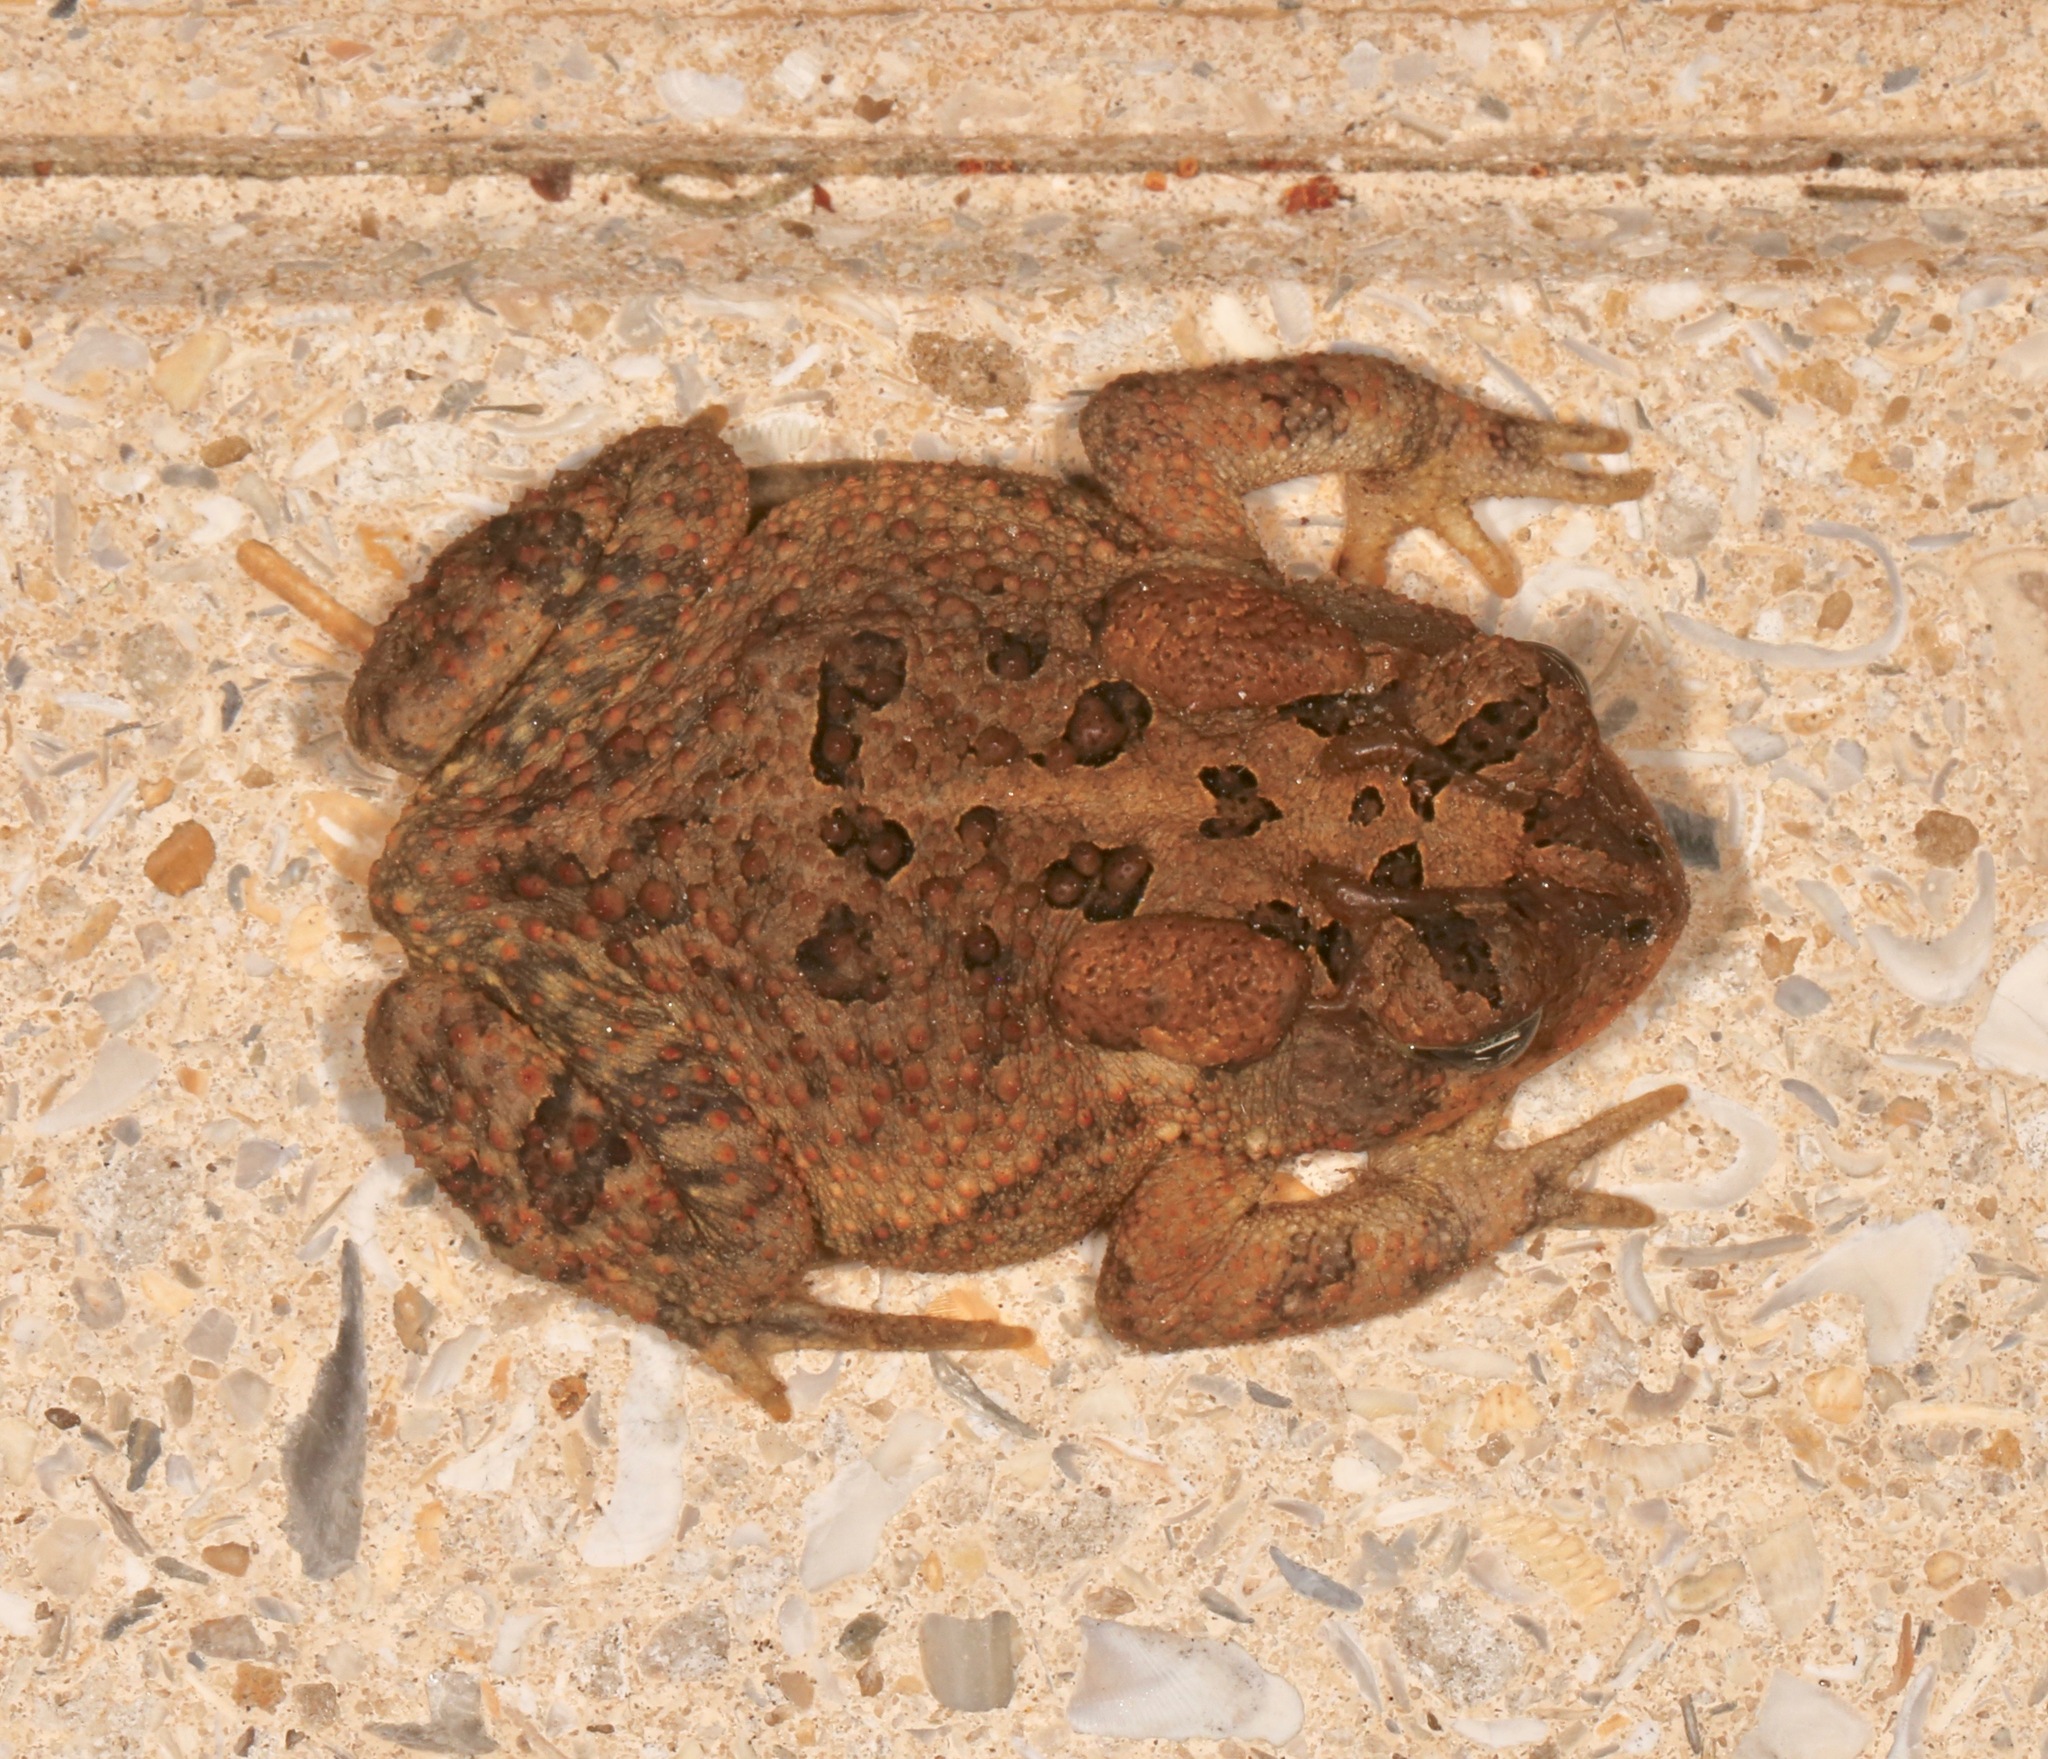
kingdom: Animalia
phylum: Chordata
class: Amphibia
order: Anura
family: Bufonidae
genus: Anaxyrus
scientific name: Anaxyrus terrestris
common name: Southern toad
